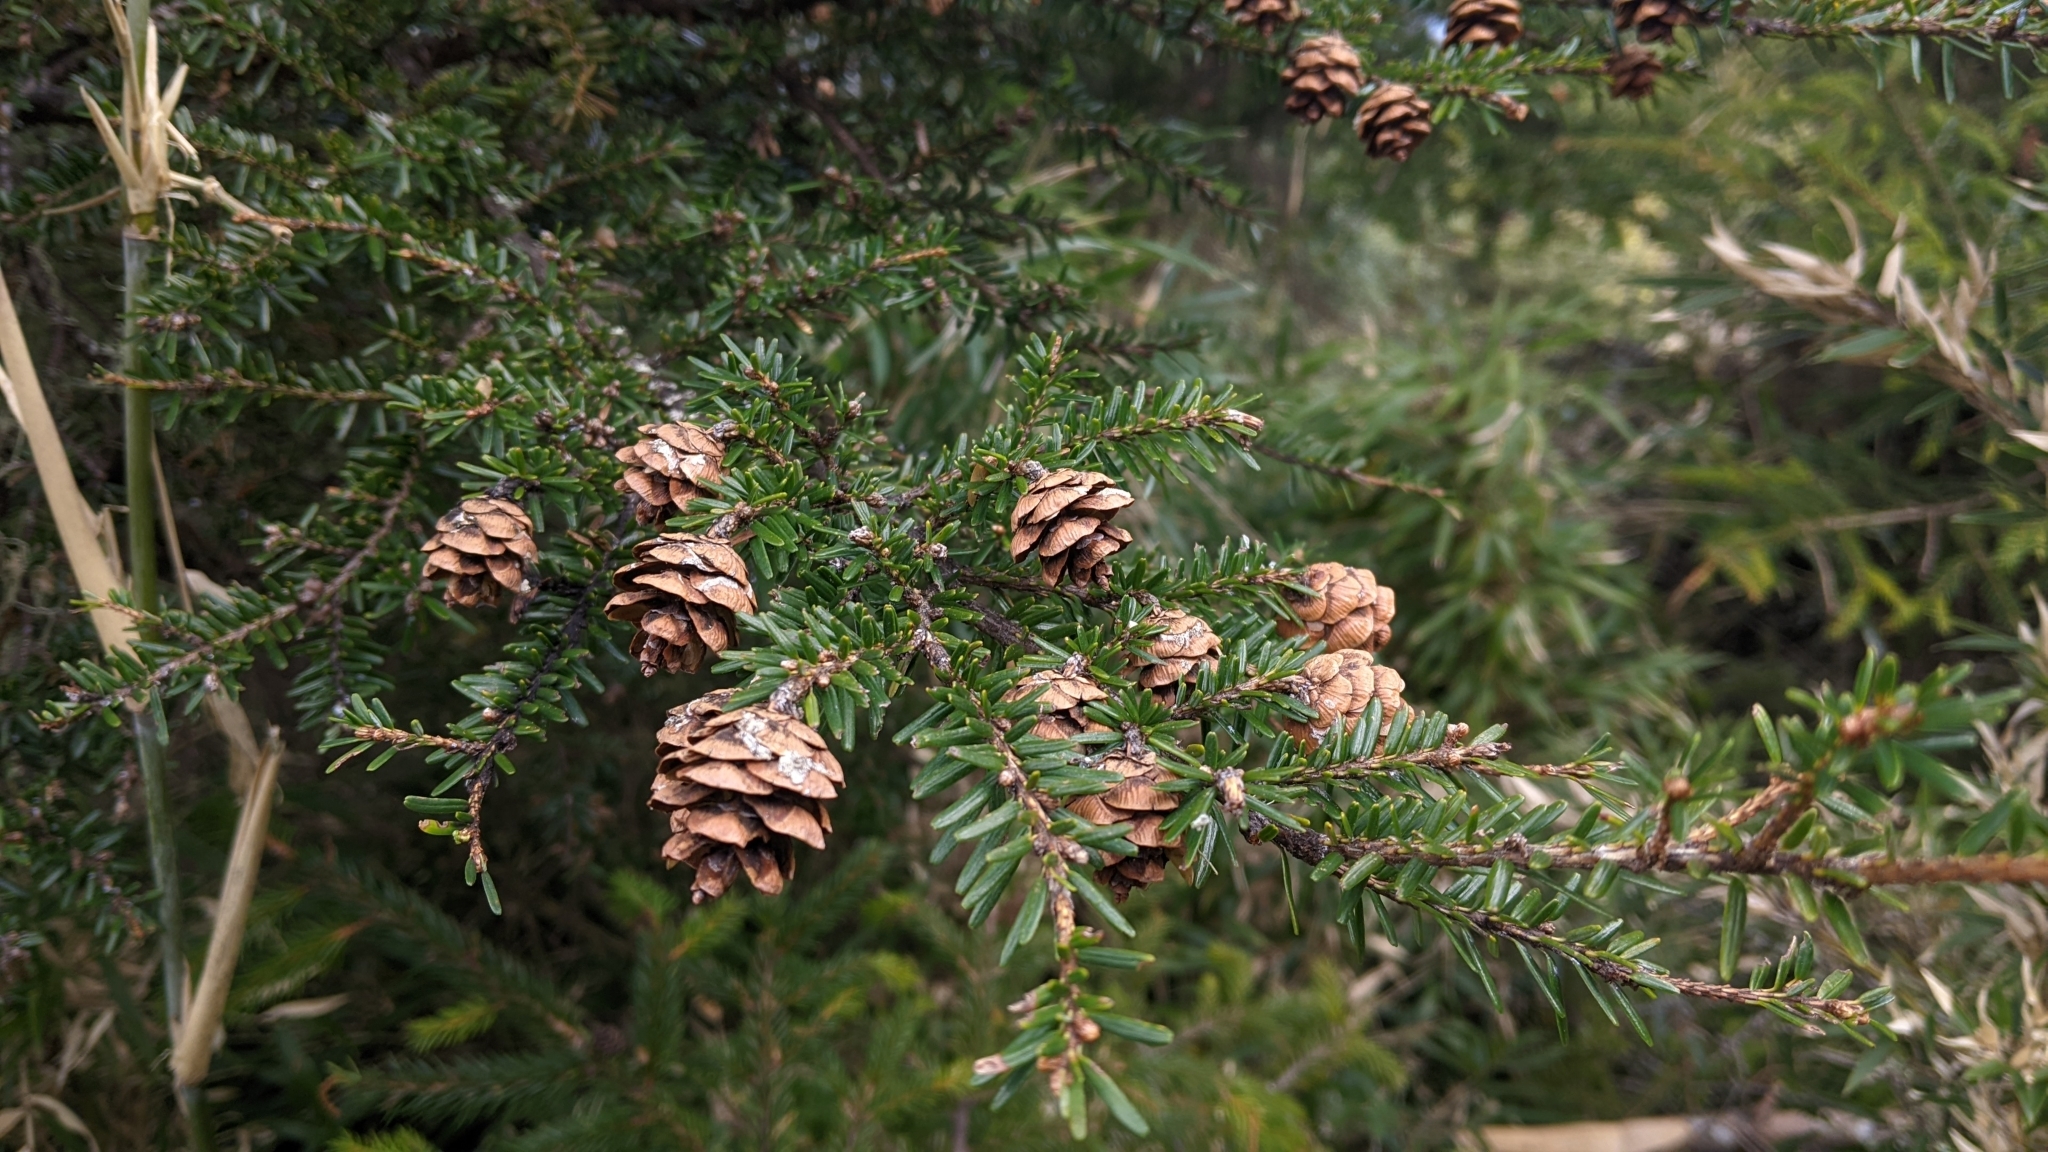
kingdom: Plantae
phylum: Tracheophyta
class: Pinopsida
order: Pinales
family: Pinaceae
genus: Tsuga
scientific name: Tsuga chinensis
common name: Chinese hemlock
